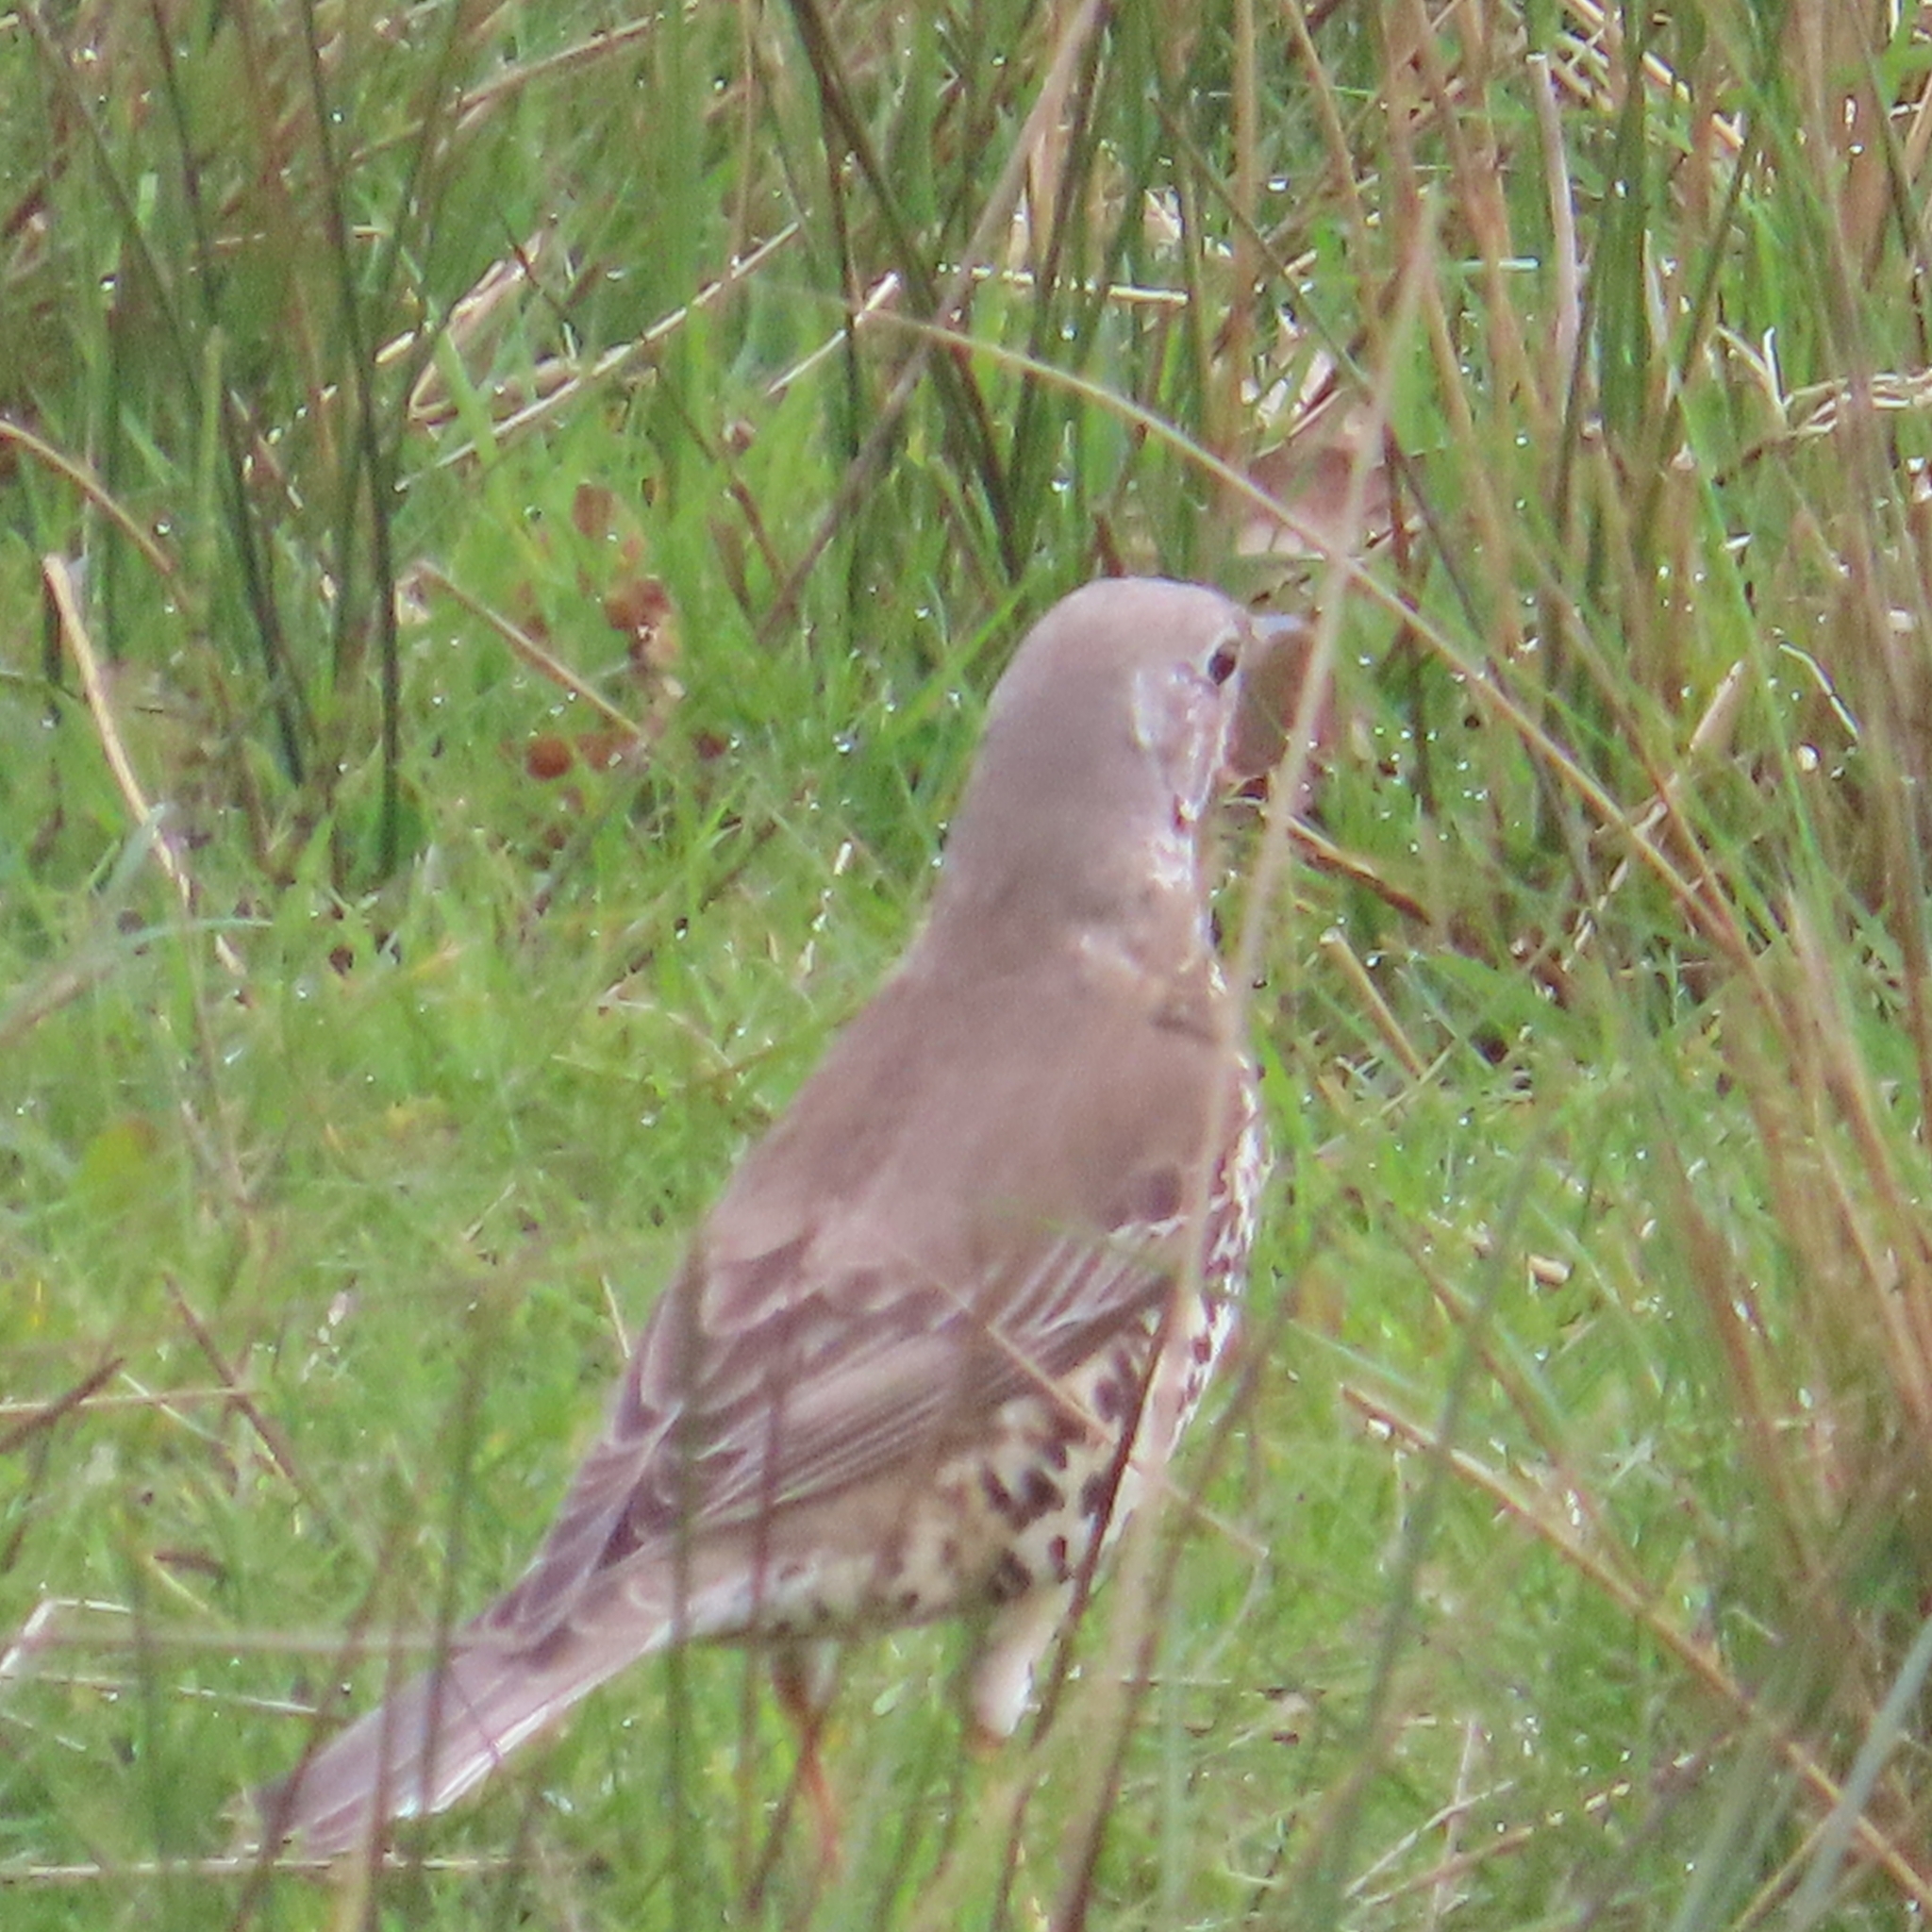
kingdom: Animalia
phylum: Chordata
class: Aves
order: Passeriformes
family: Turdidae
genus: Turdus
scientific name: Turdus viscivorus
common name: Mistle thrush
